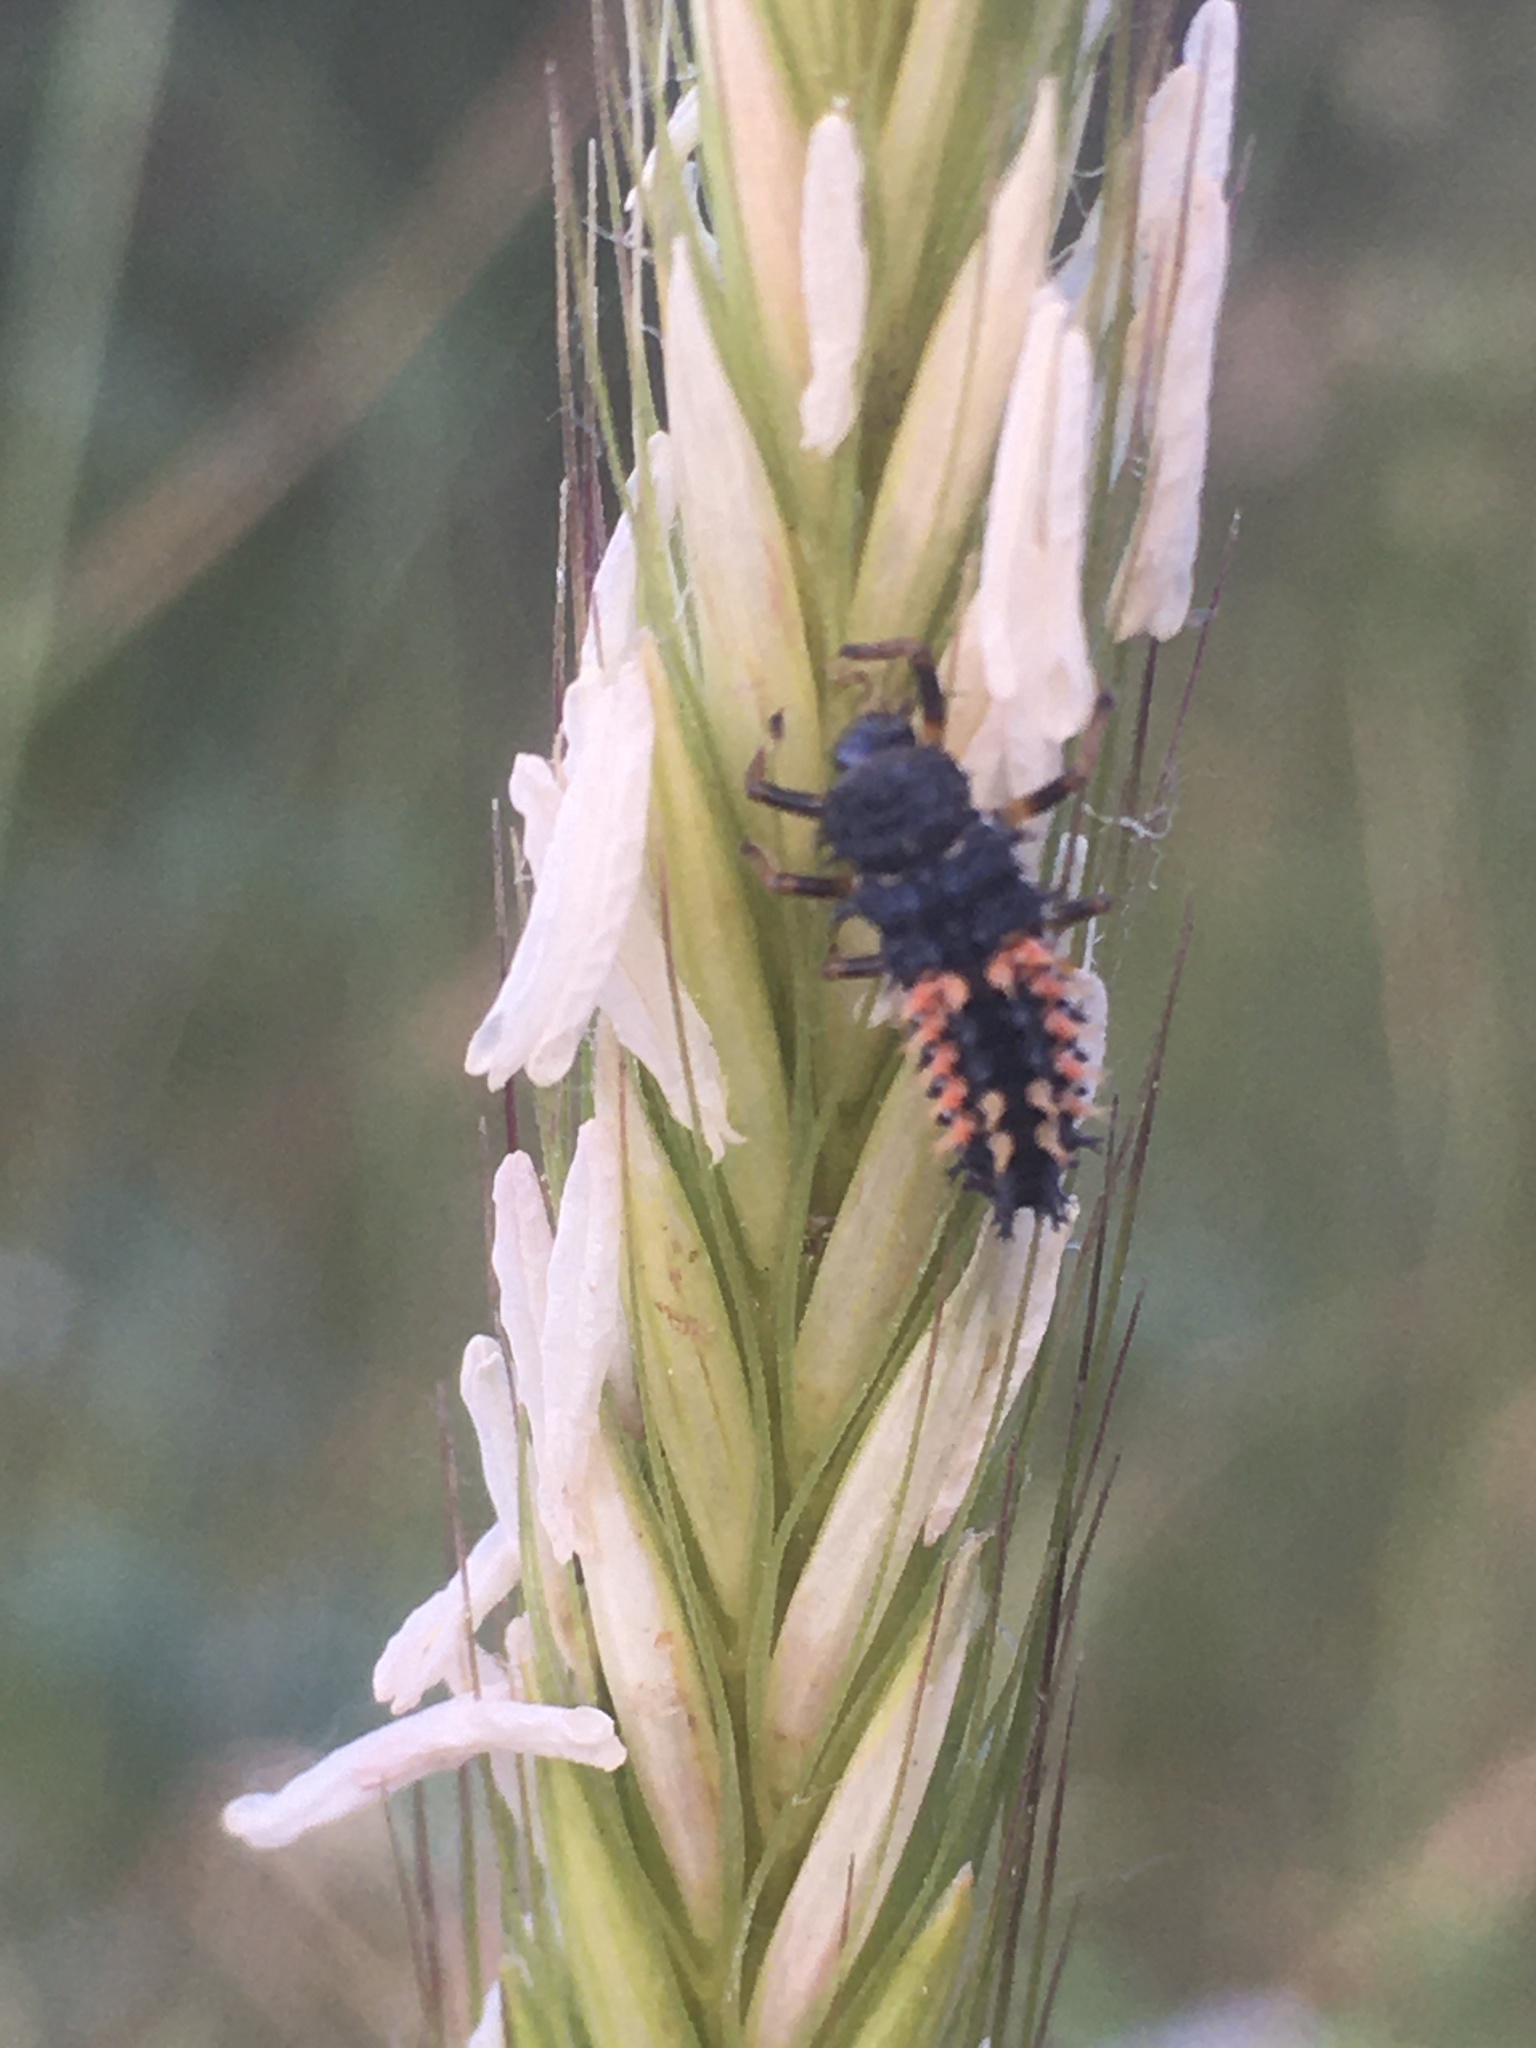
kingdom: Animalia
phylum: Arthropoda
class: Insecta
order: Coleoptera
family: Coccinellidae
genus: Harmonia
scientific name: Harmonia axyridis
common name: Harlequin ladybird
